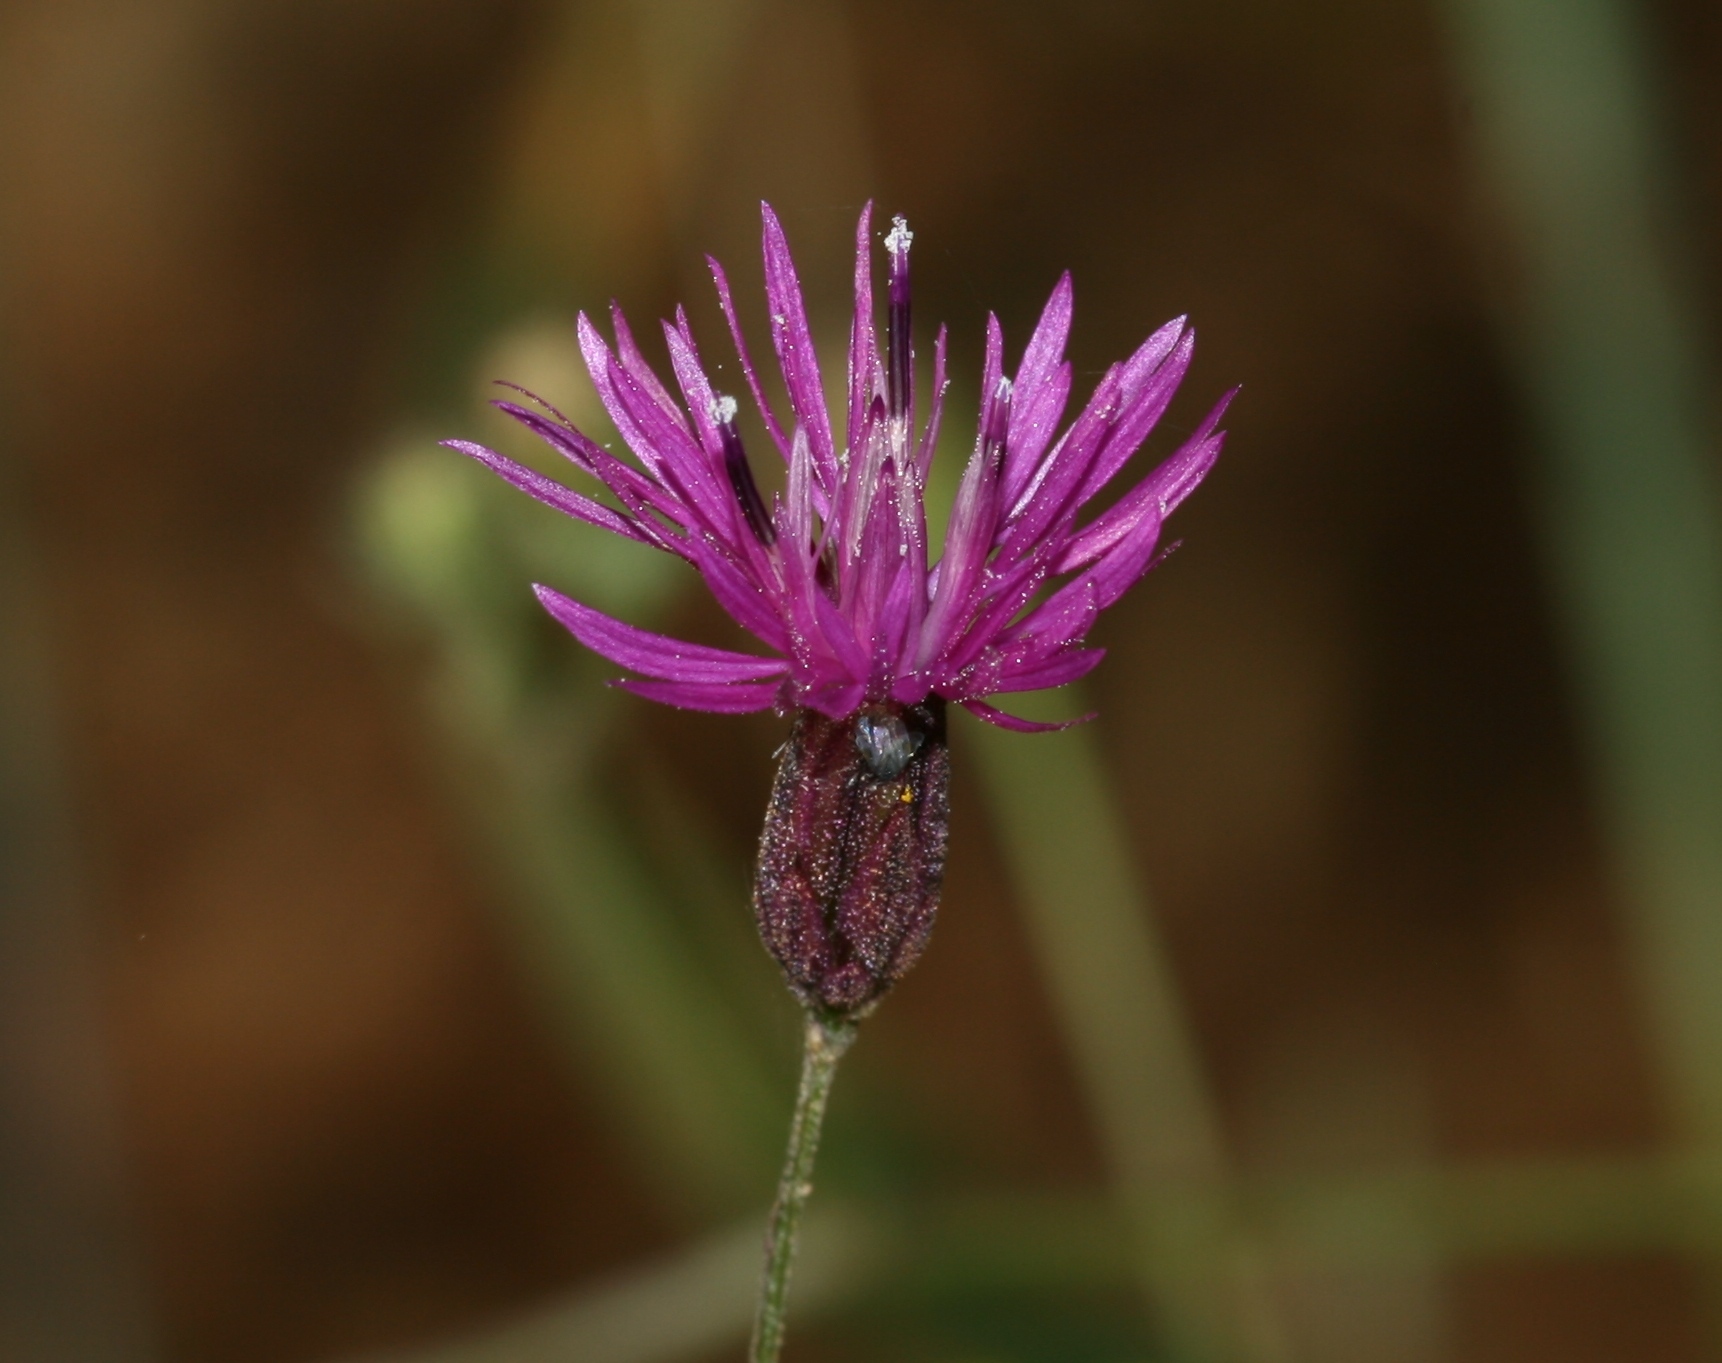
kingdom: Plantae
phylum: Tracheophyta
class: Magnoliopsida
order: Asterales
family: Asteraceae
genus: Crupina
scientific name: Crupina crupinastrum
